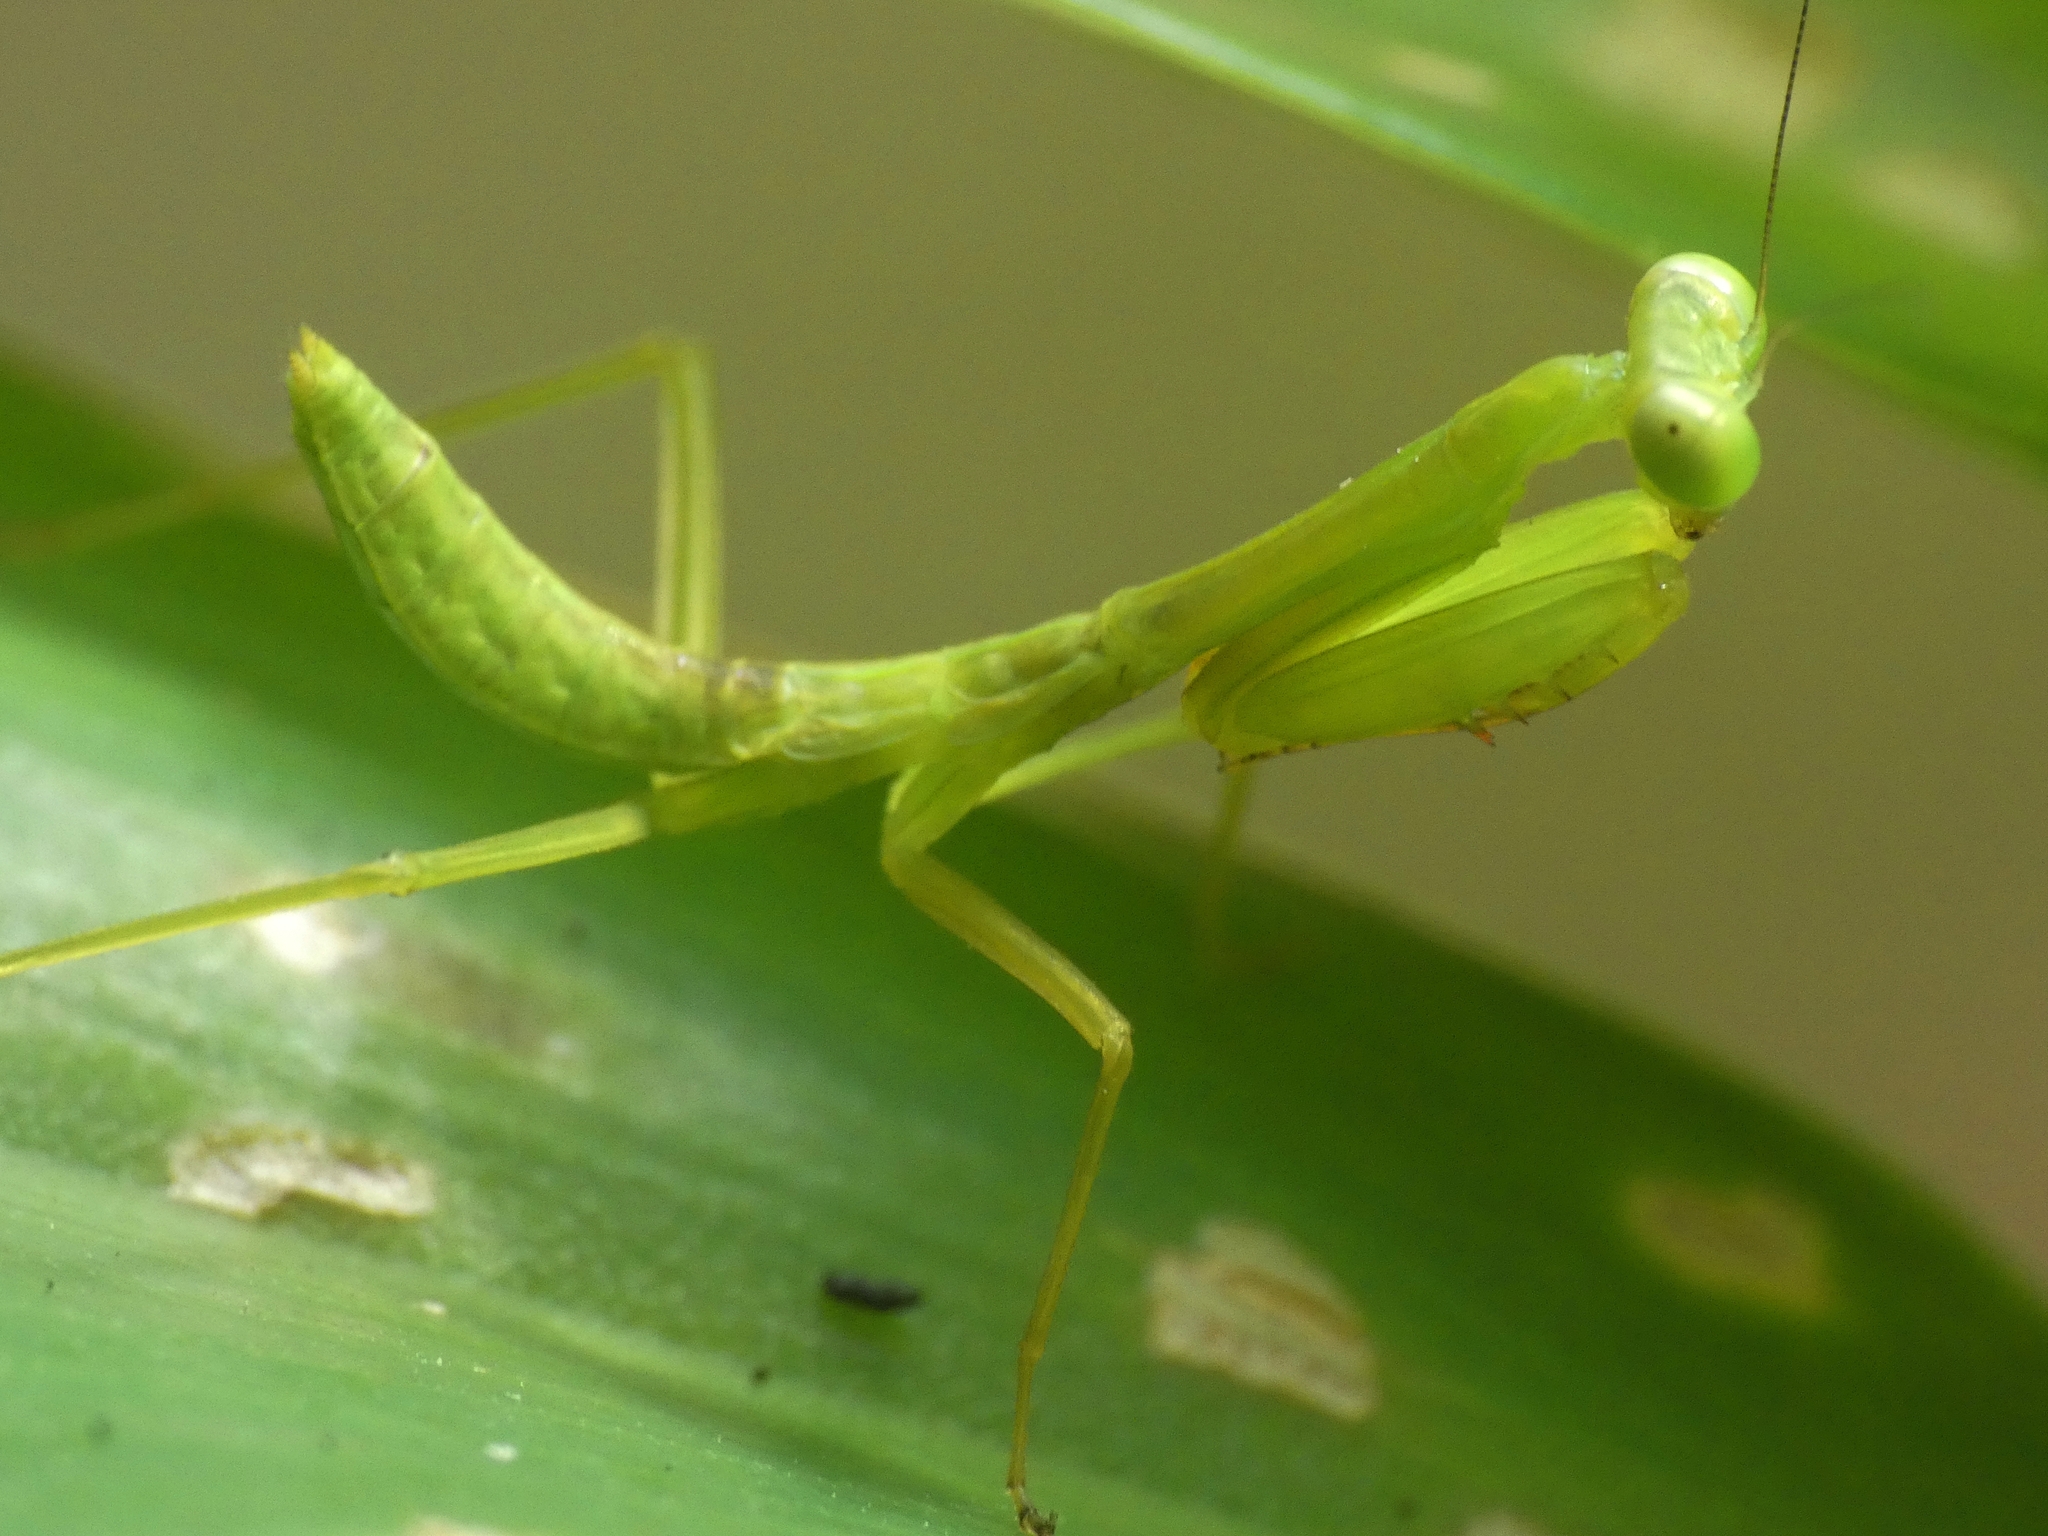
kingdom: Animalia
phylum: Arthropoda
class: Insecta
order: Mantodea
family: Mantidae
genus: Hierodula
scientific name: Hierodula majuscula
